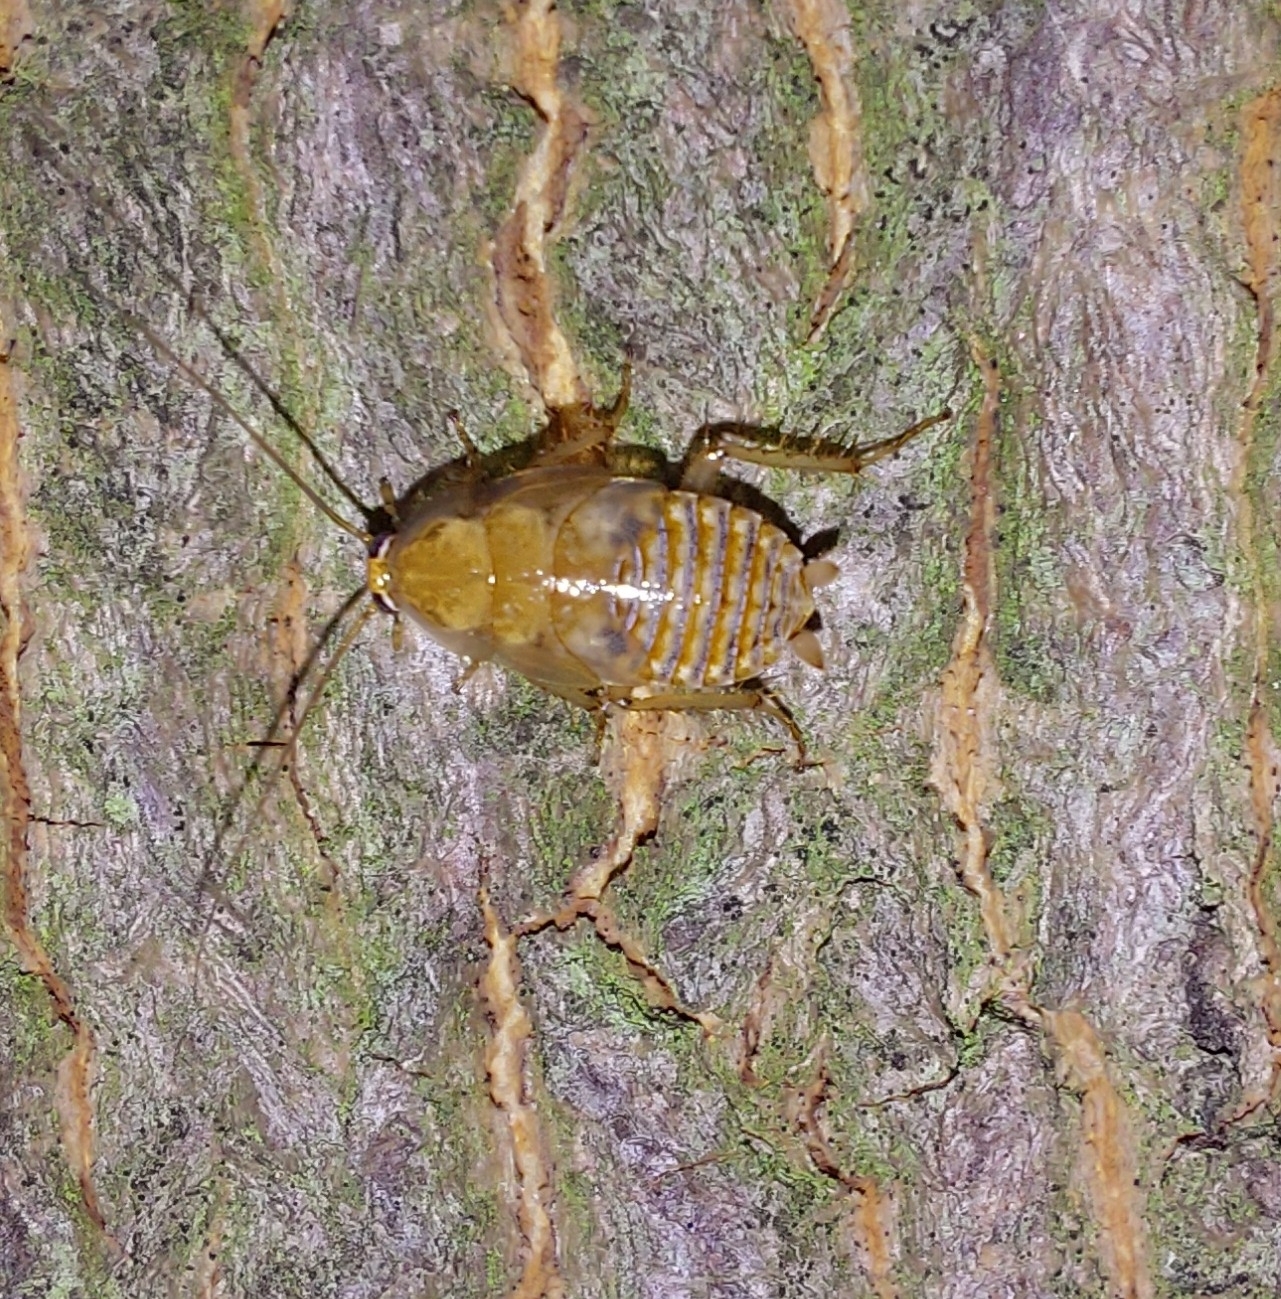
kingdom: Animalia
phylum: Arthropoda
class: Insecta
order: Blattodea
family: Ectobiidae
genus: Ectobius
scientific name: Ectobius vittiventris
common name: Garden cockroach
